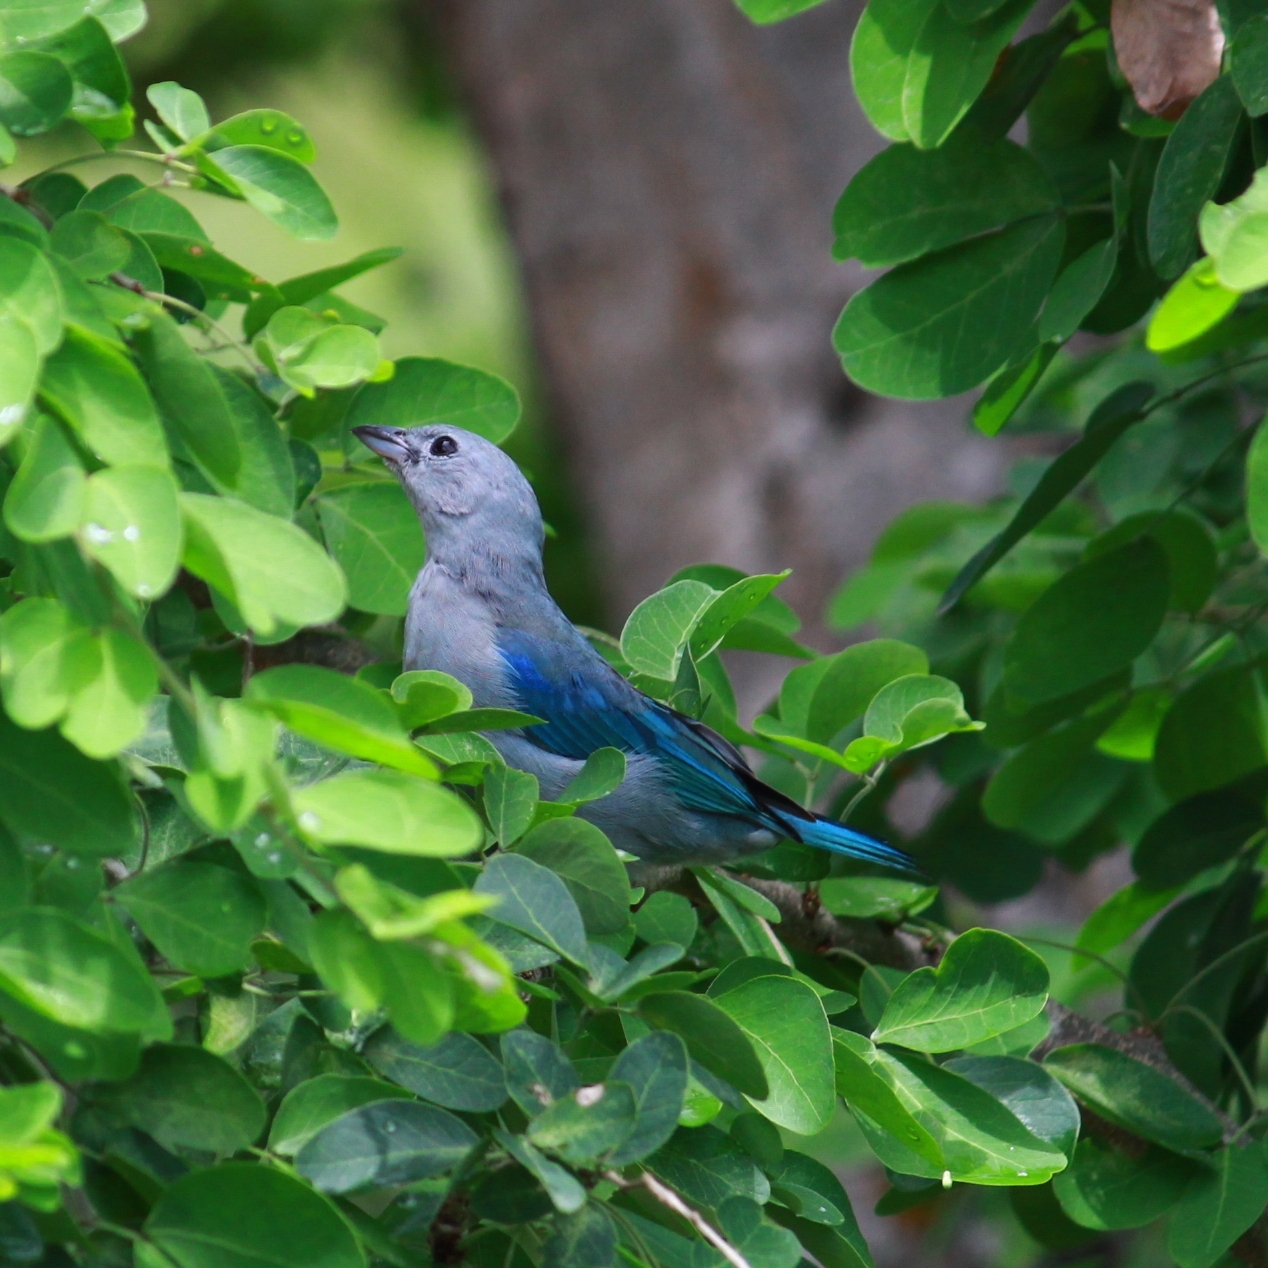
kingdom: Animalia
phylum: Chordata
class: Aves
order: Passeriformes
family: Thraupidae
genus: Thraupis
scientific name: Thraupis episcopus
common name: Blue-grey tanager
